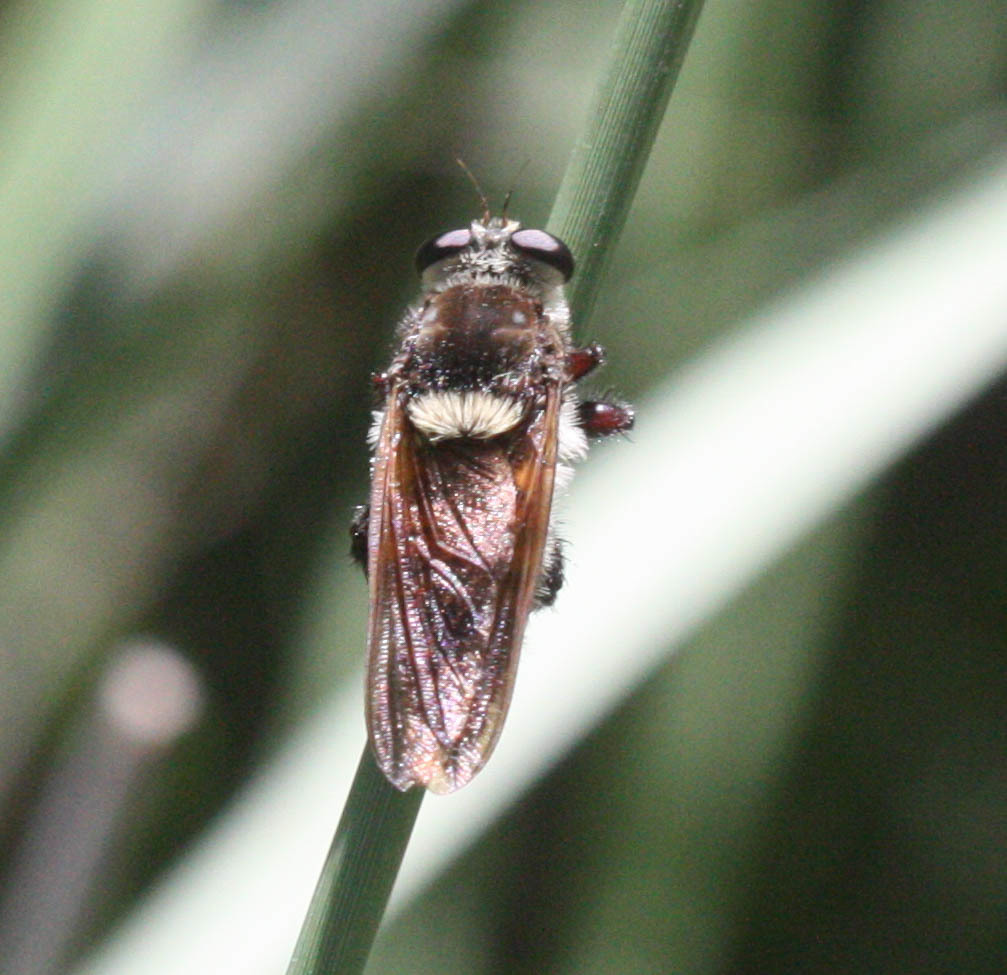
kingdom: Animalia
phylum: Arthropoda
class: Insecta
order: Diptera
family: Asilidae
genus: Mallophora
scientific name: Mallophora fautrix
